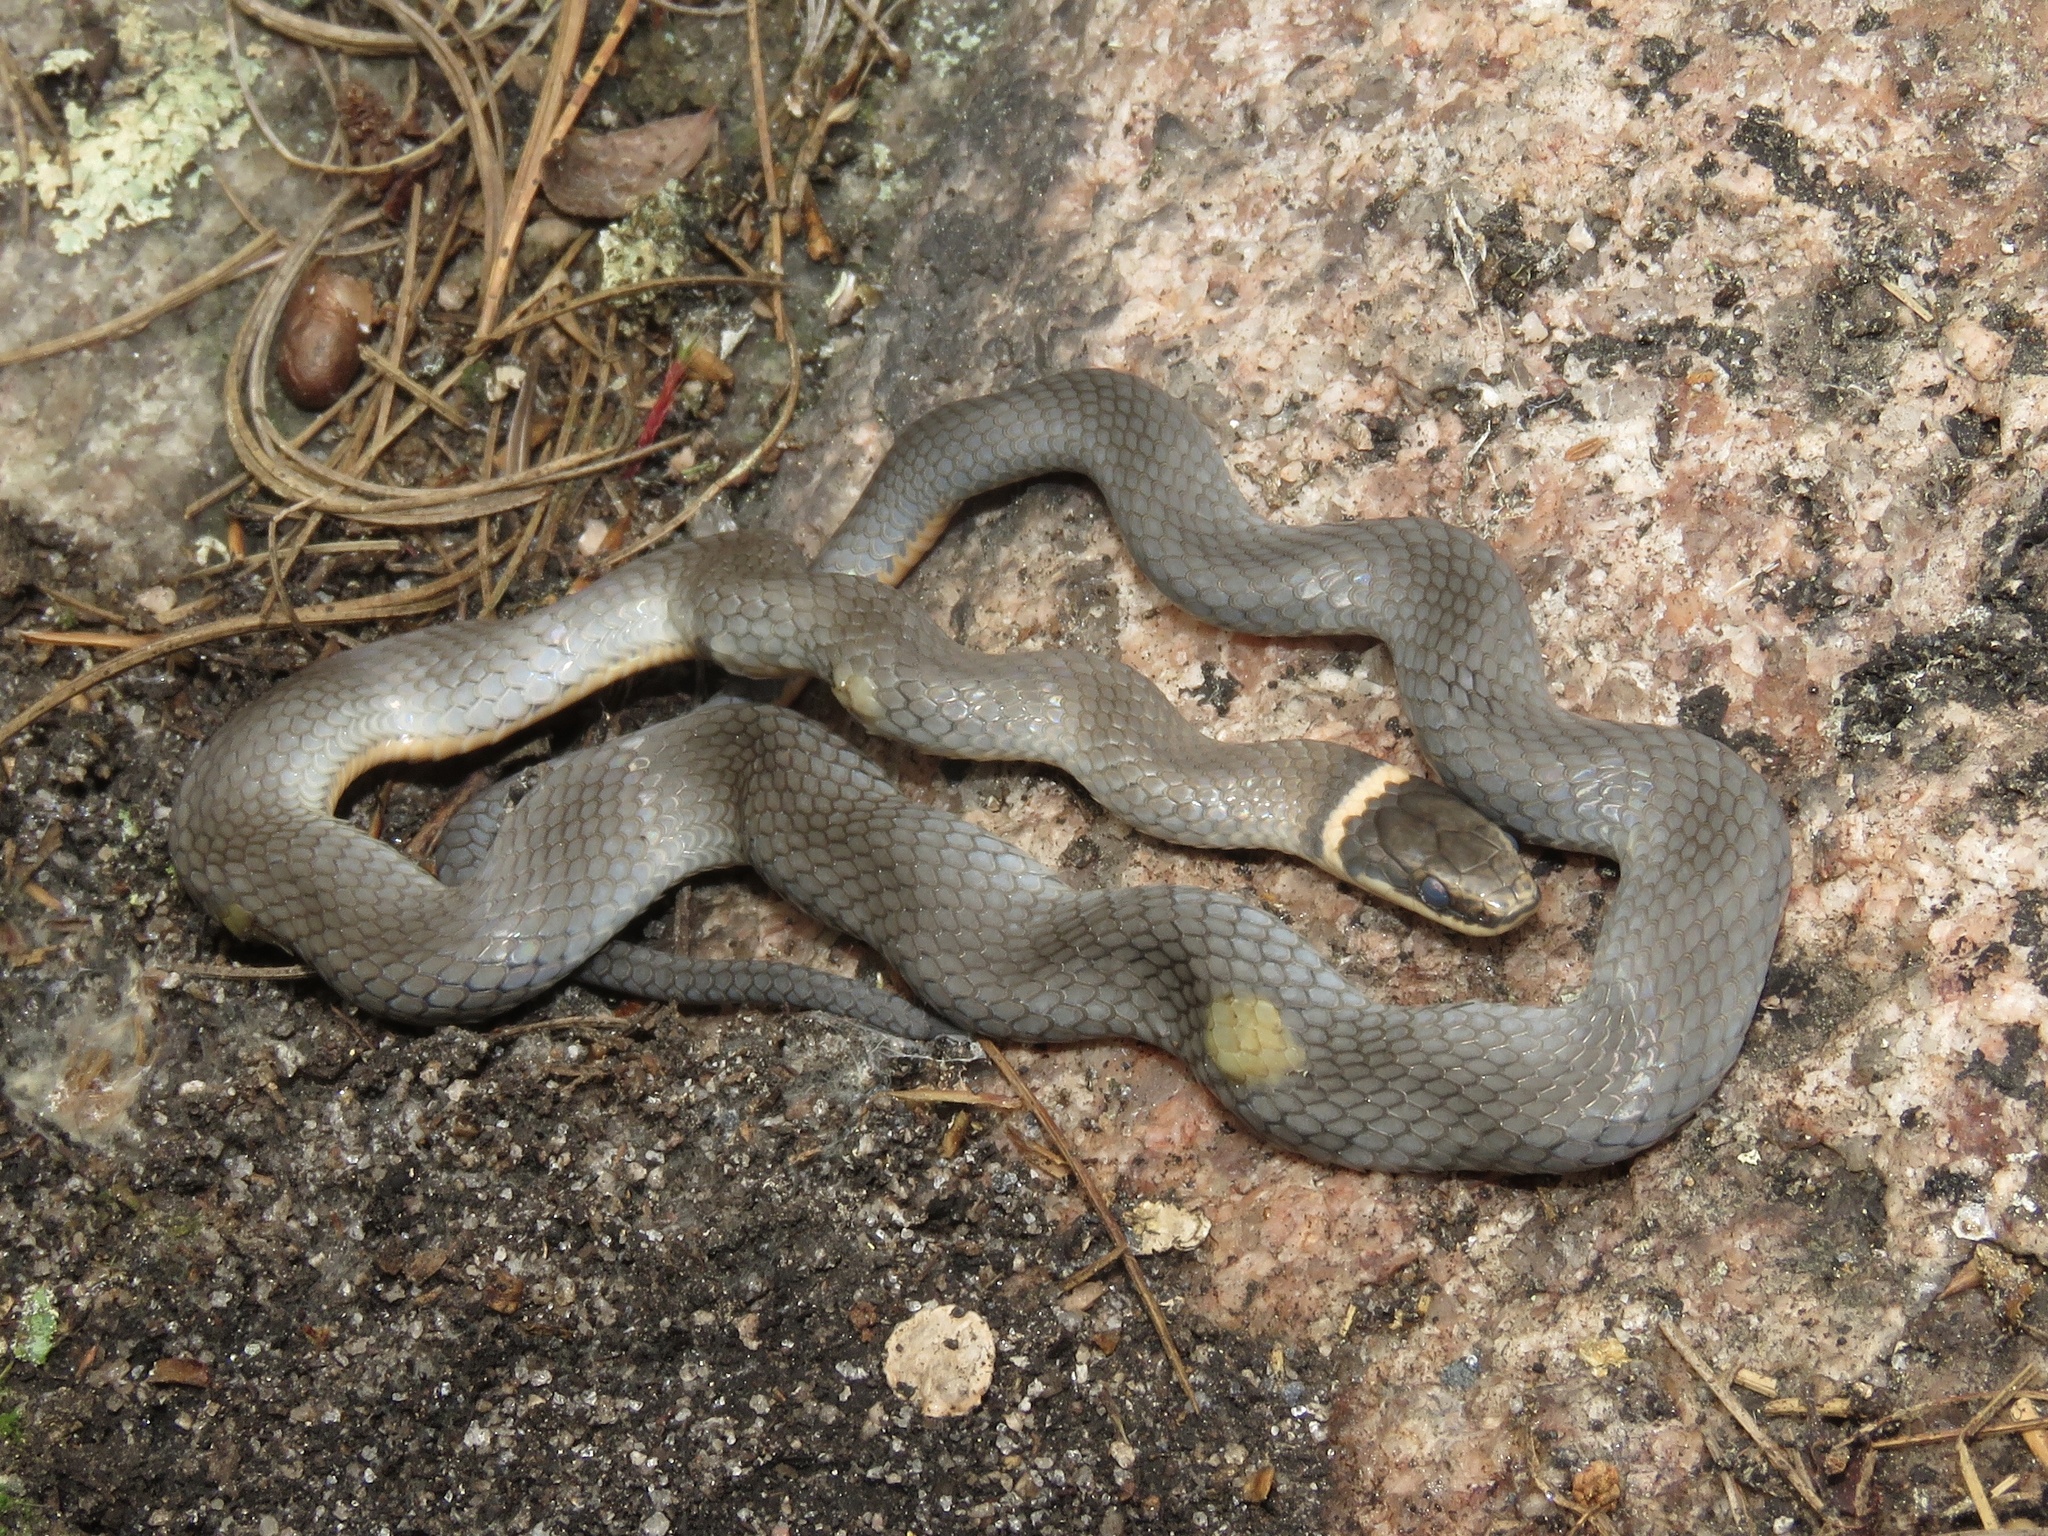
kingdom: Animalia
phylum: Chordata
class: Squamata
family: Colubridae
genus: Diadophis
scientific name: Diadophis punctatus
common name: Ringneck snake
